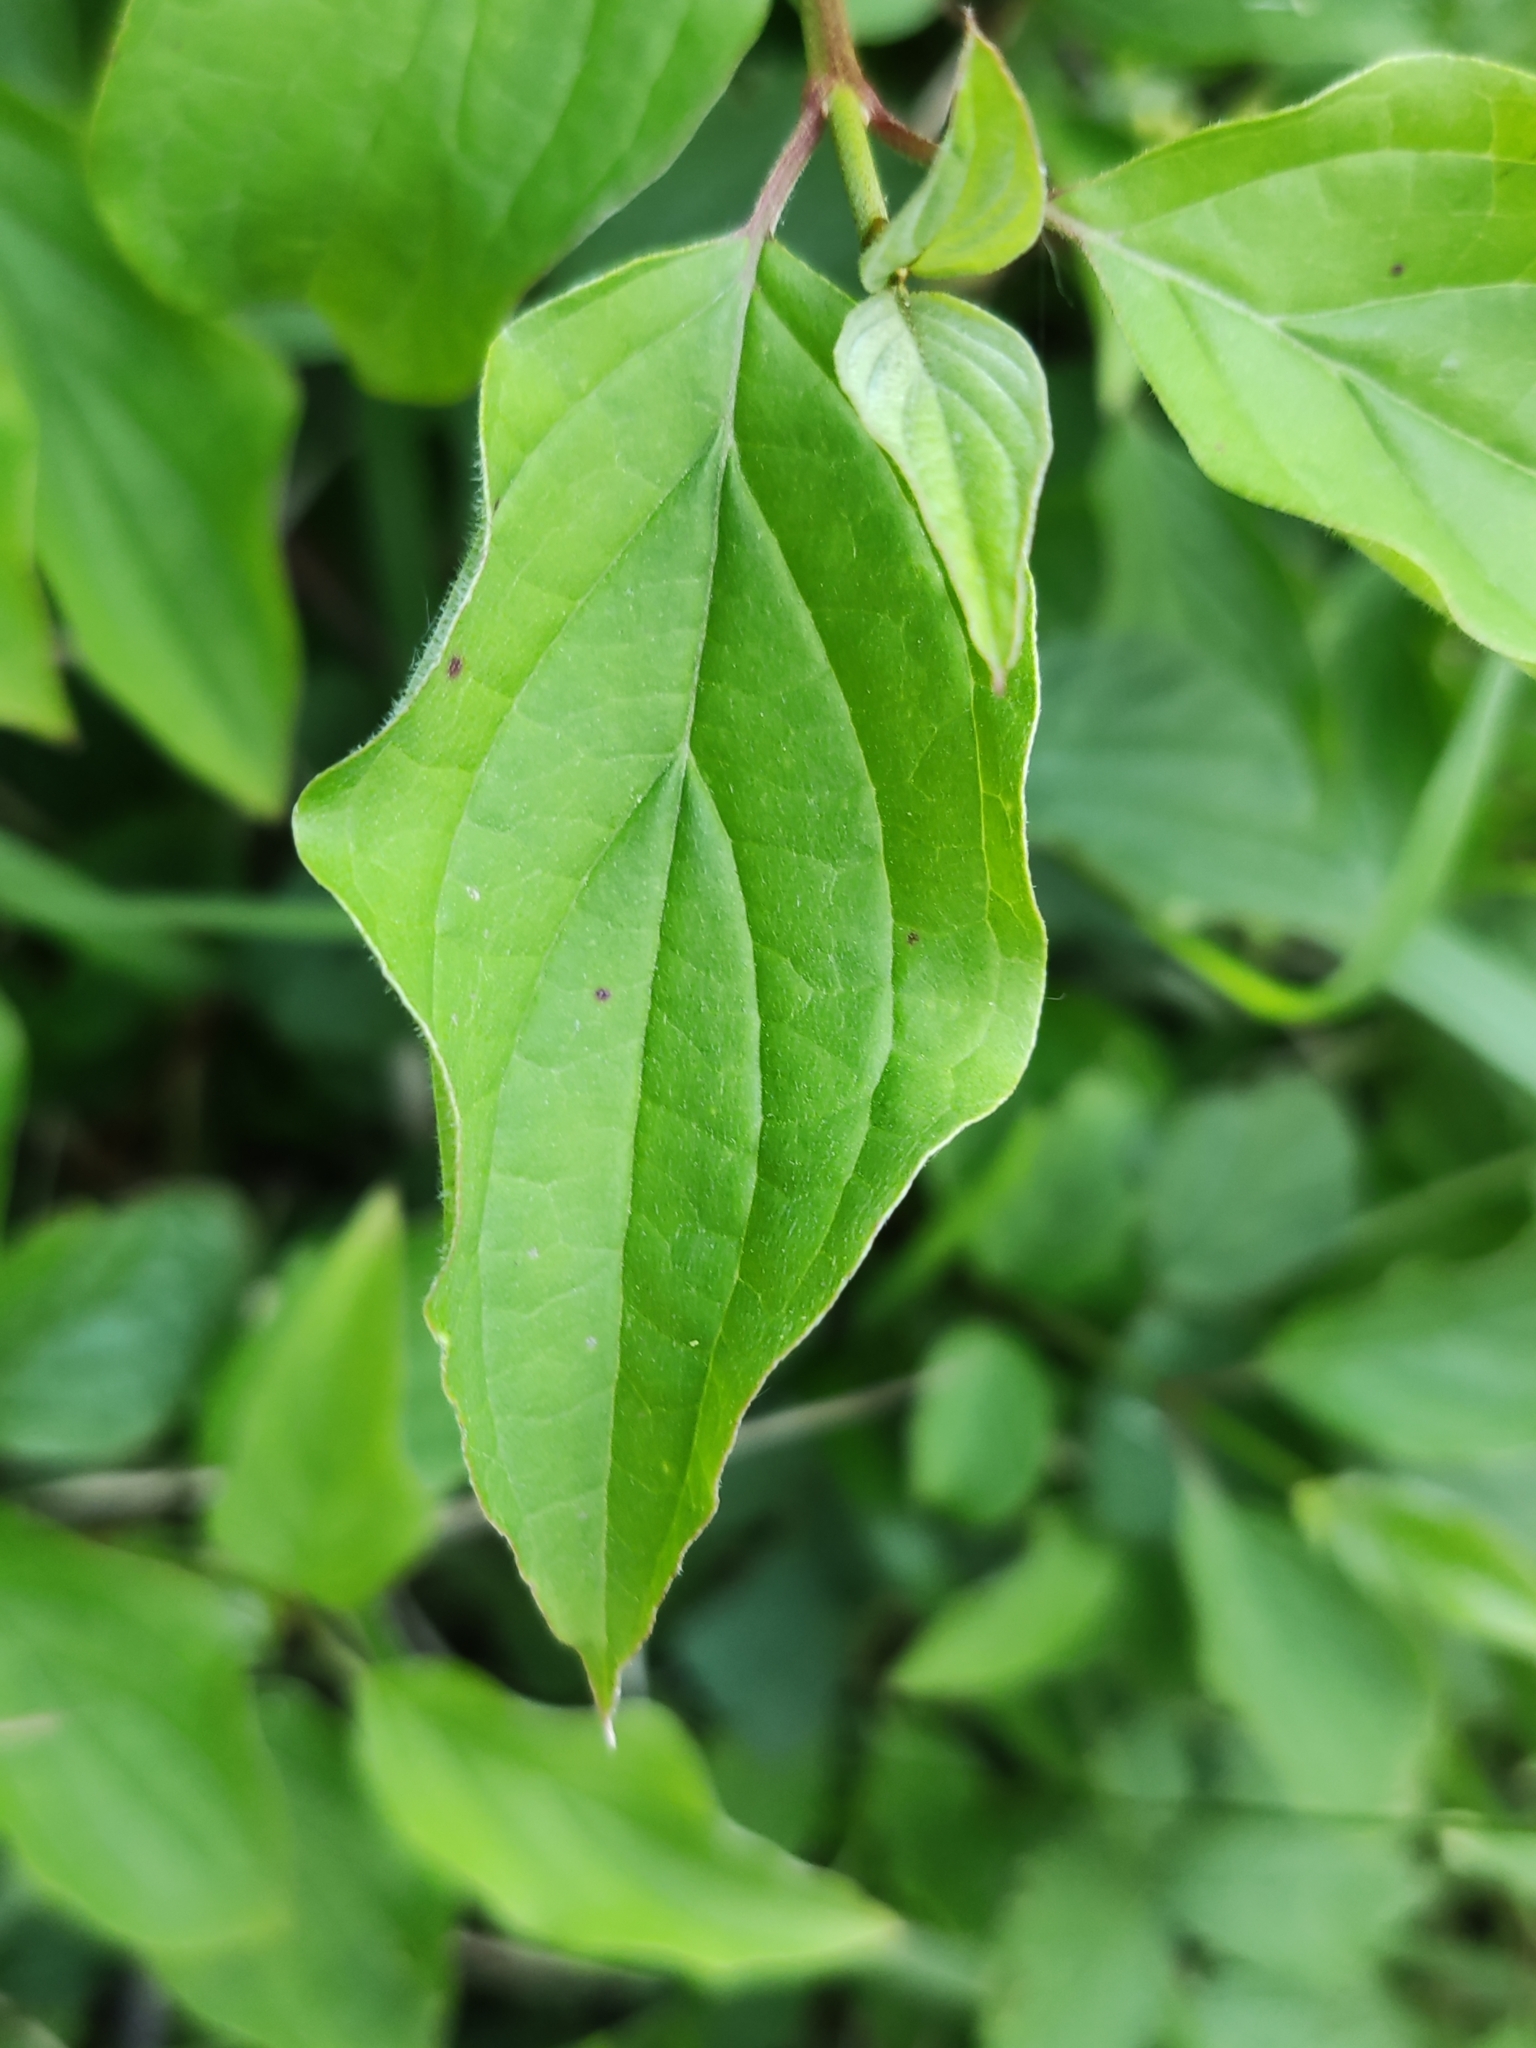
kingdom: Plantae
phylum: Tracheophyta
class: Magnoliopsida
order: Cornales
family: Cornaceae
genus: Cornus
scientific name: Cornus sanguinea
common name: Dogwood
